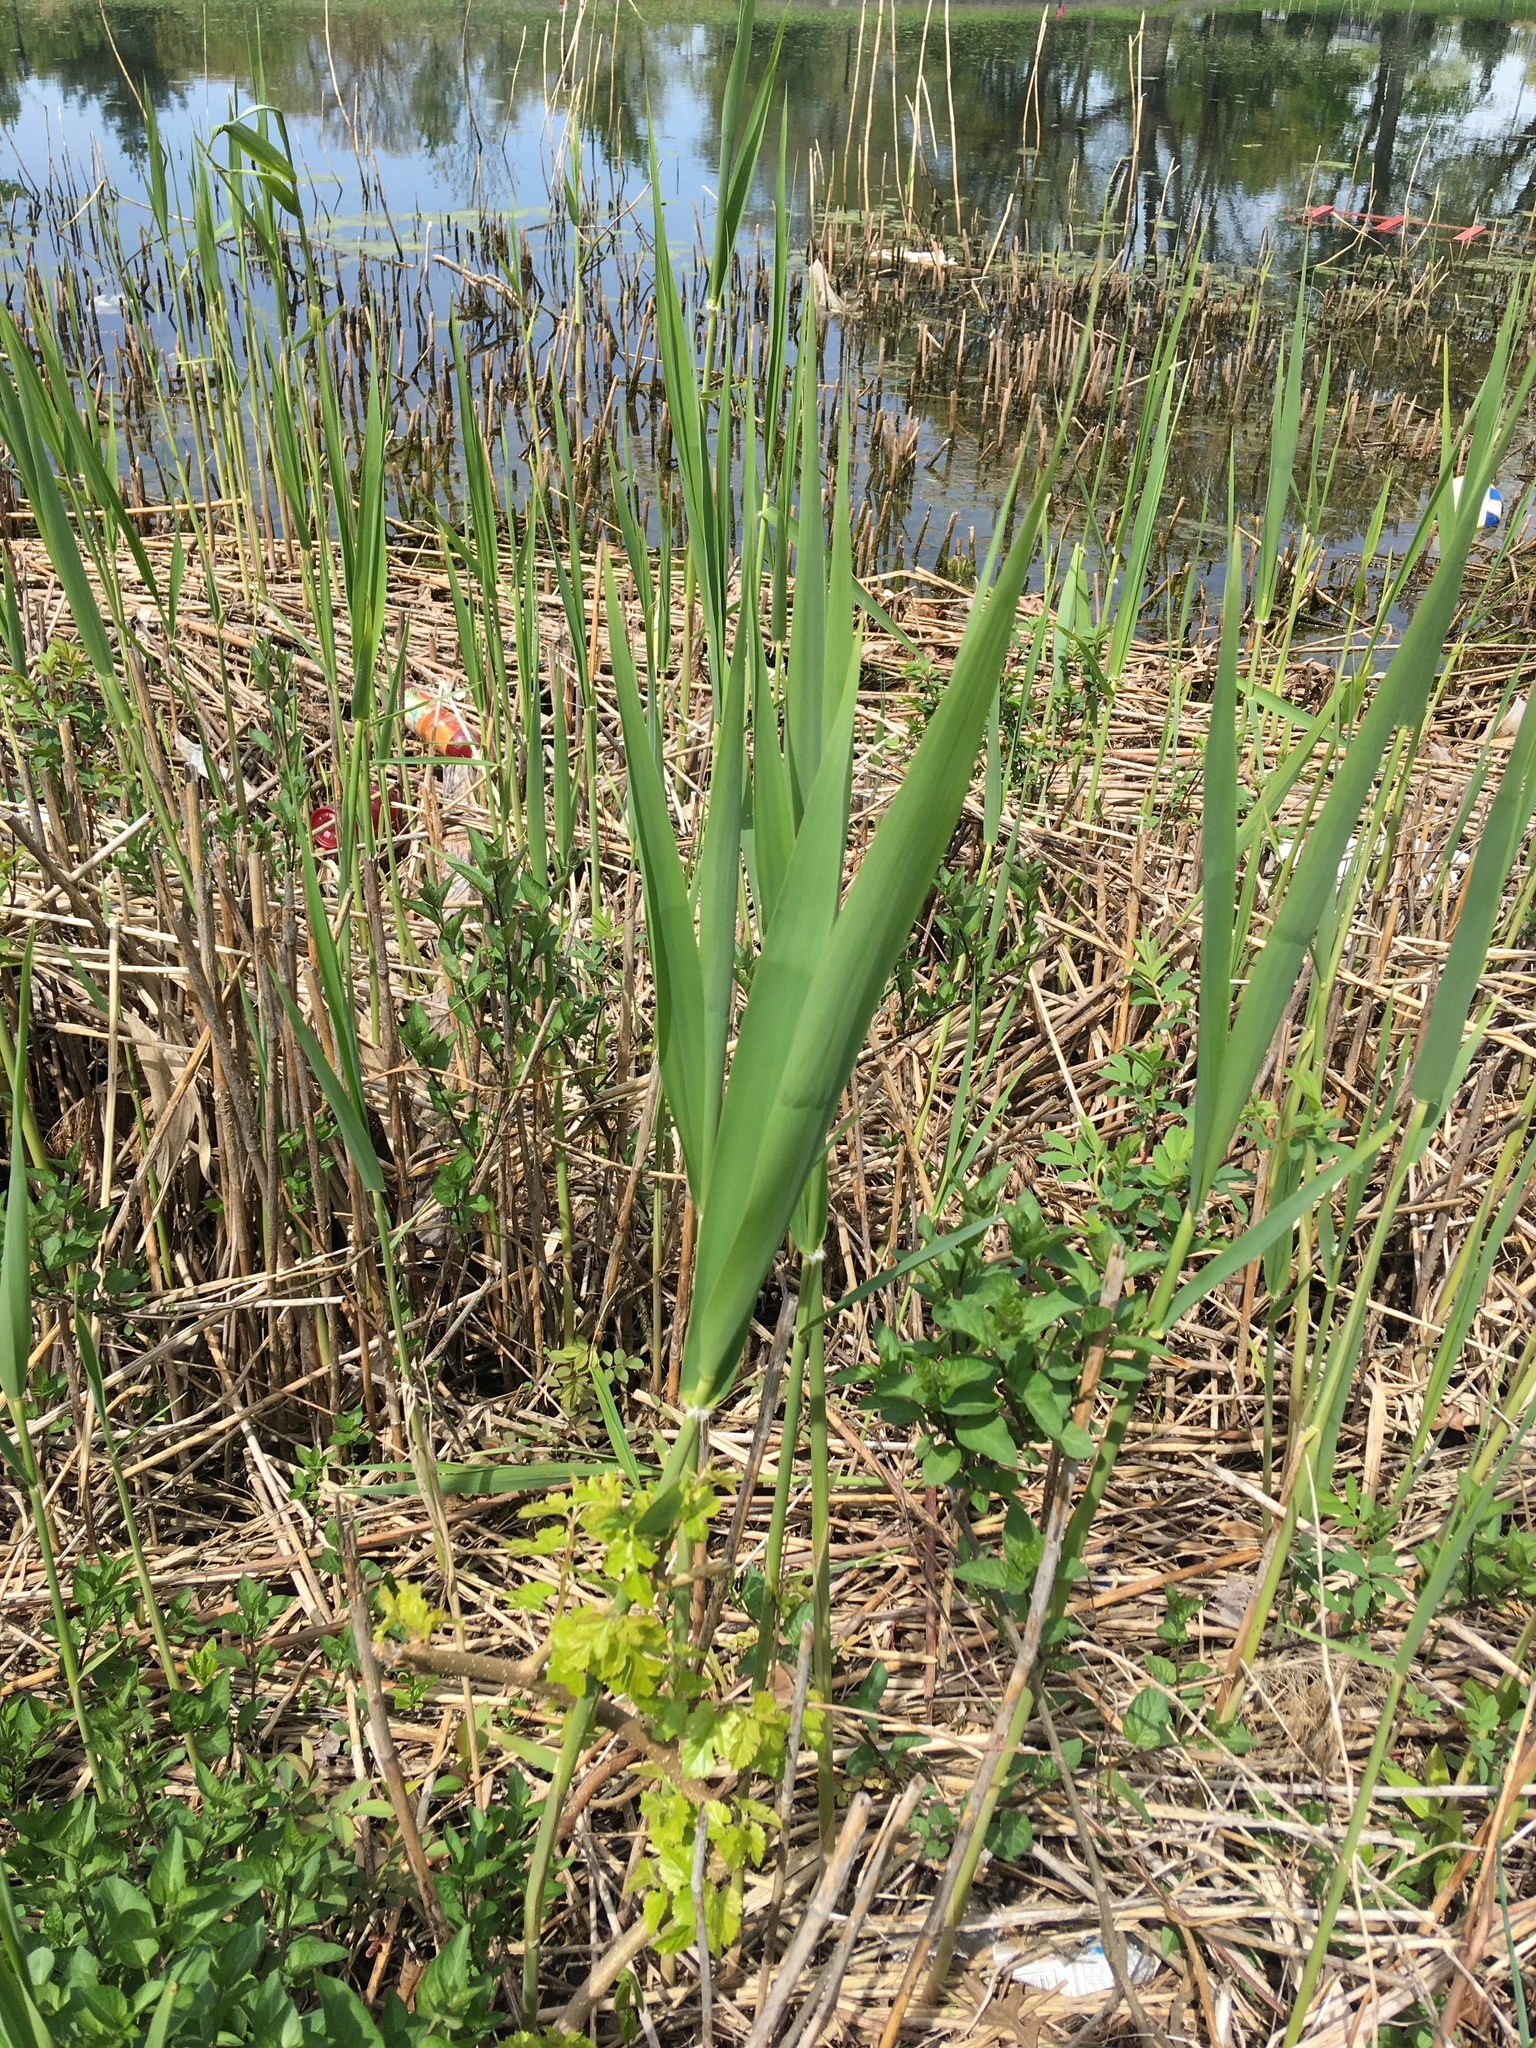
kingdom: Plantae
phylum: Tracheophyta
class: Liliopsida
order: Poales
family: Poaceae
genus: Phragmites
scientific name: Phragmites australis
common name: Common reed
